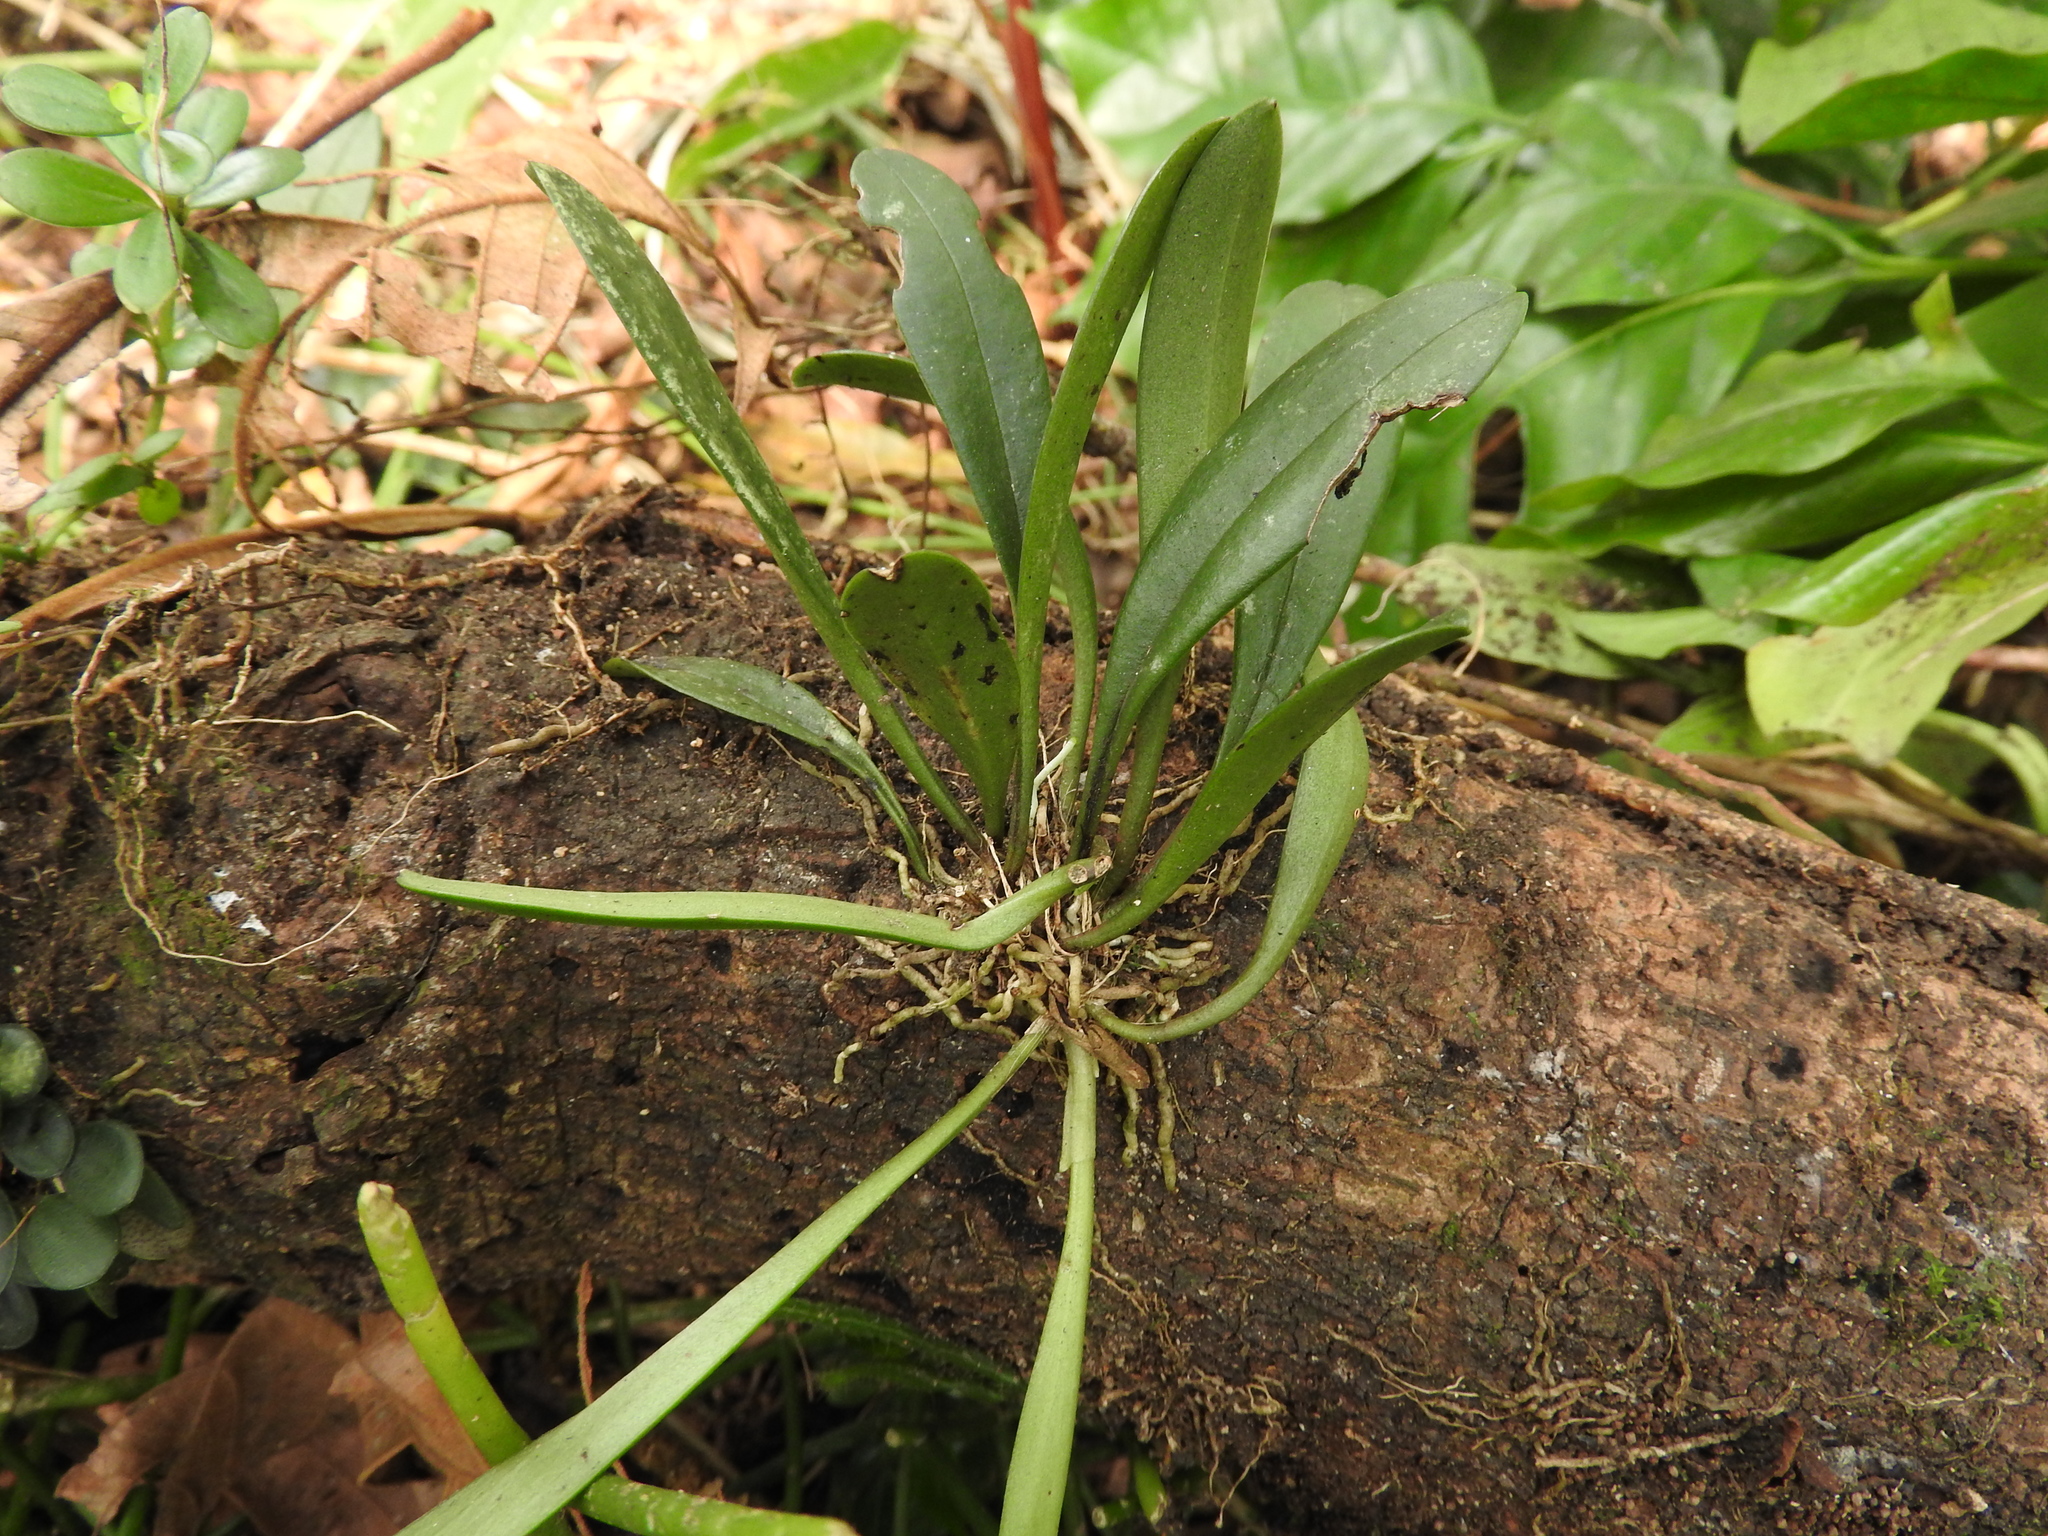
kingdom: Plantae
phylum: Tracheophyta
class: Liliopsida
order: Asparagales
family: Orchidaceae
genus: Masdevallia
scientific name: Masdevallia floribunda
